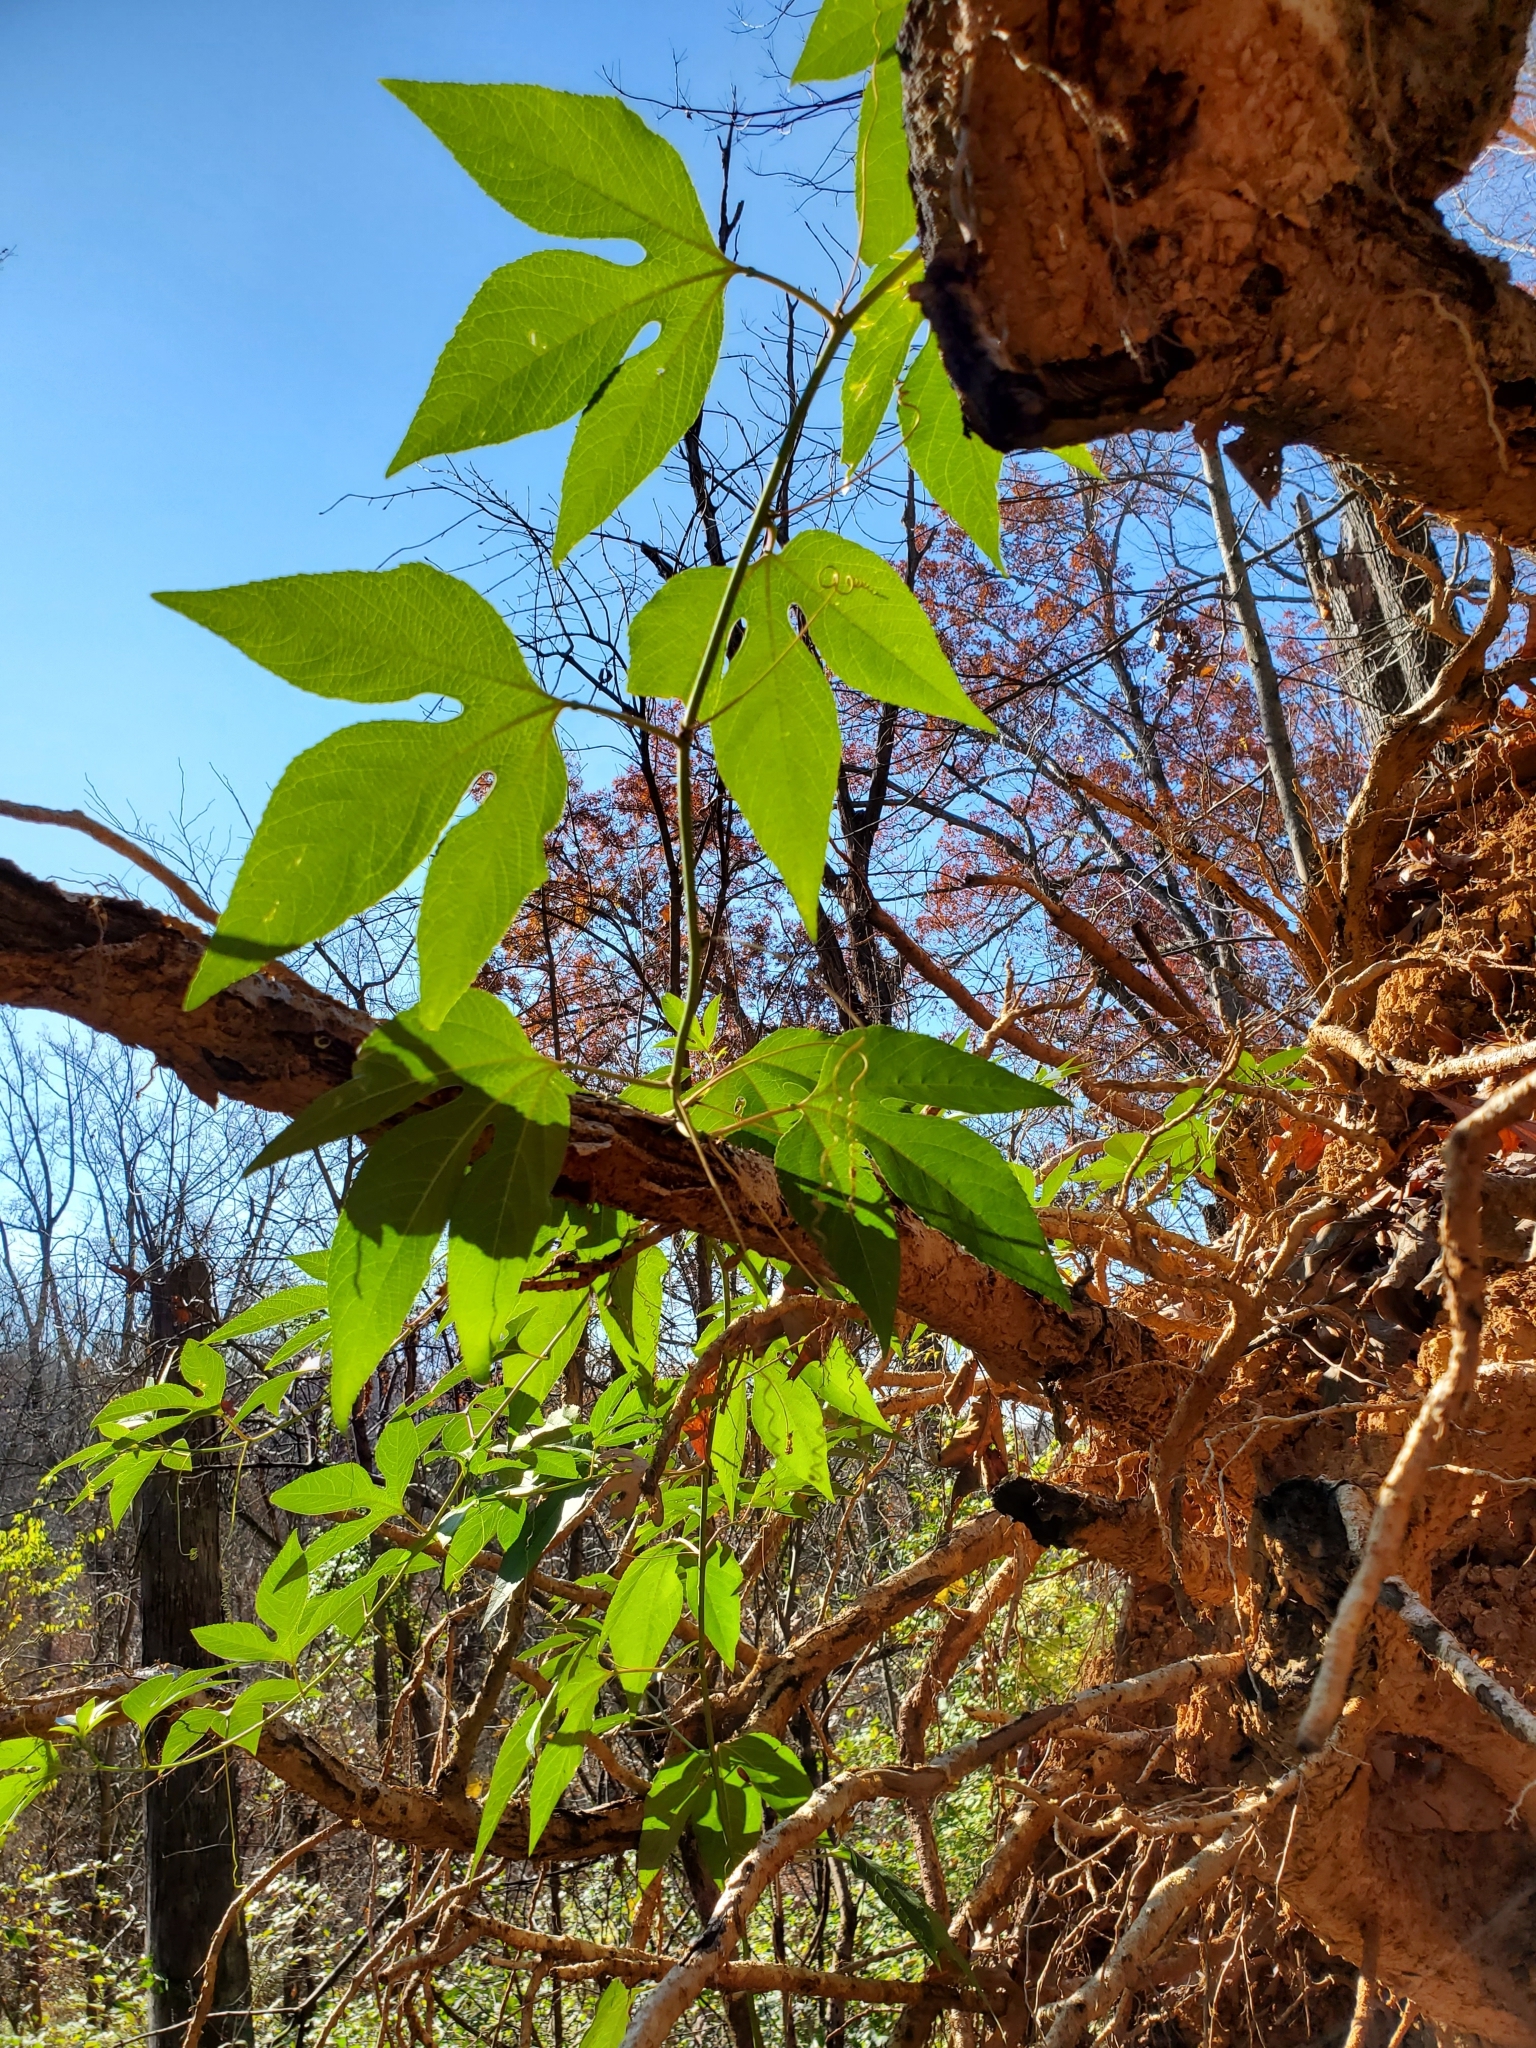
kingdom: Plantae
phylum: Tracheophyta
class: Magnoliopsida
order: Malpighiales
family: Passifloraceae
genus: Passiflora
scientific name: Passiflora incarnata
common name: Apricot-vine
